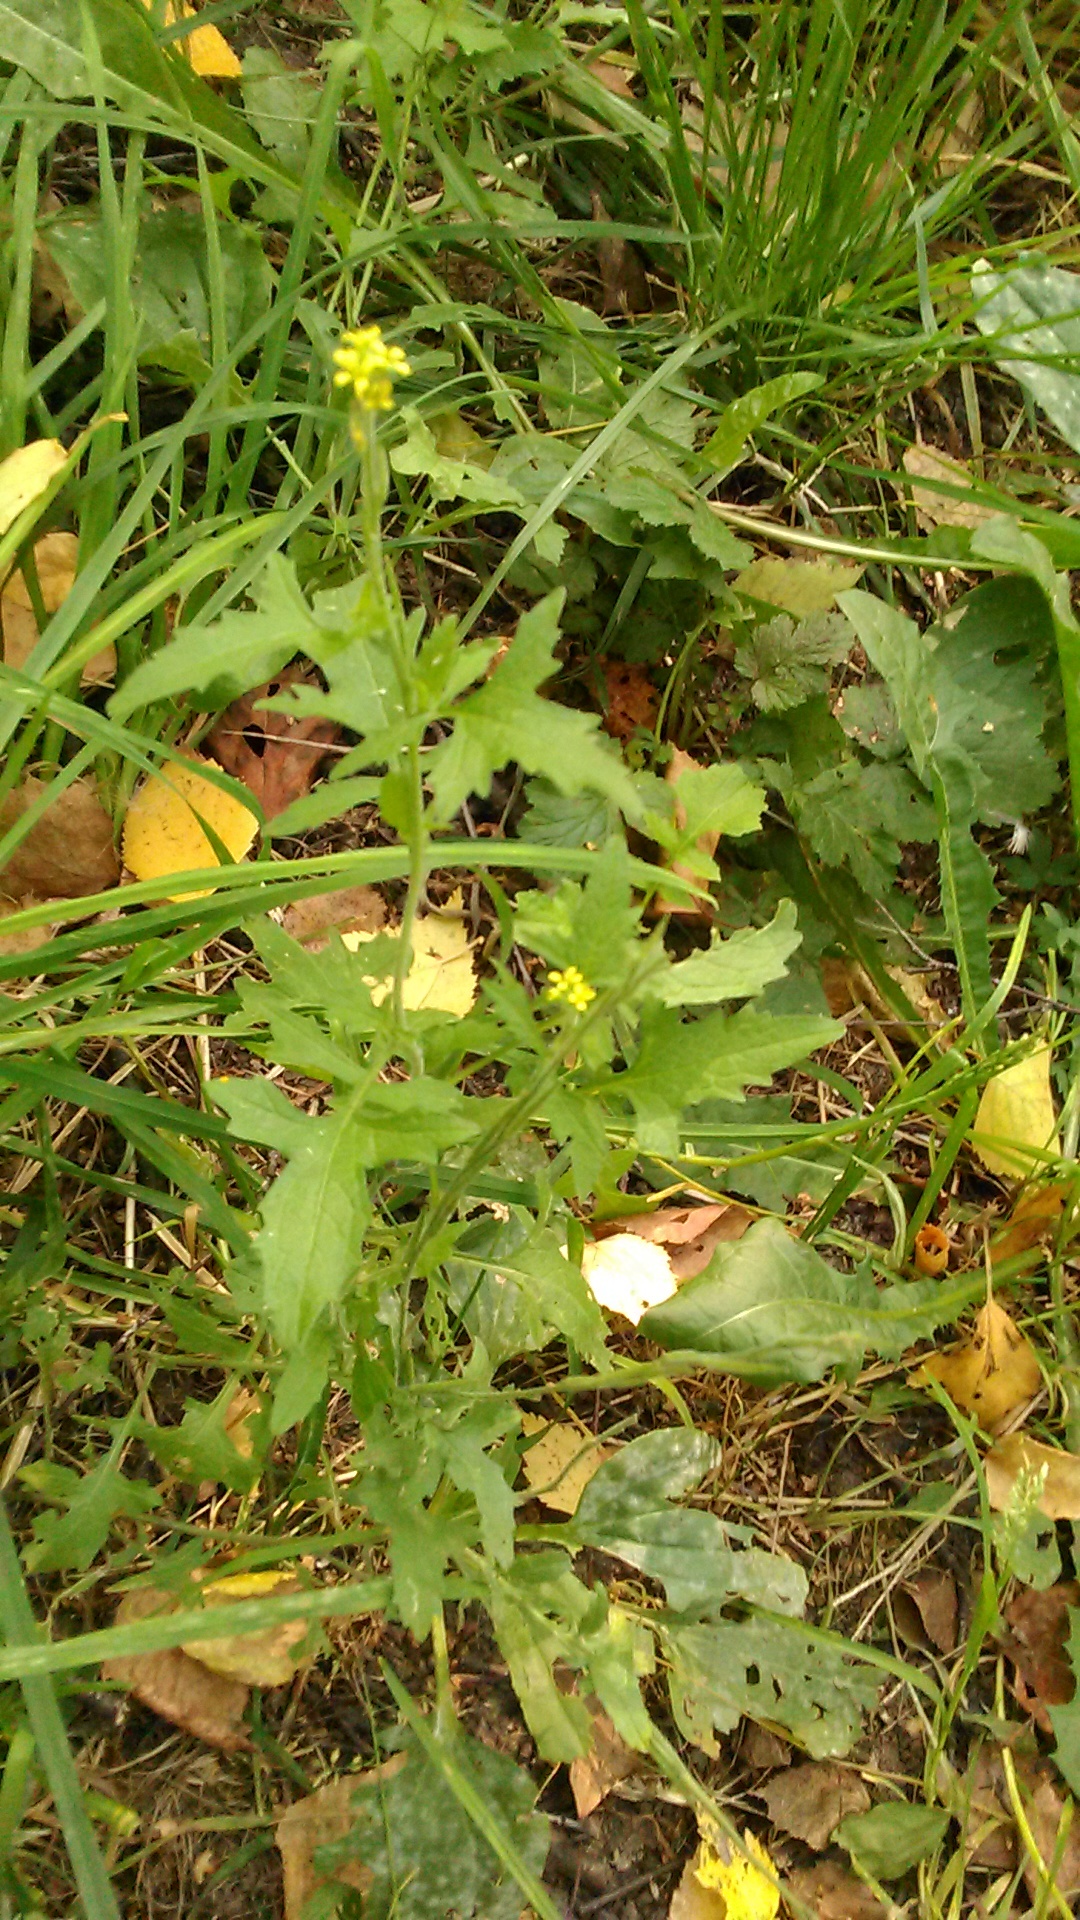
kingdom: Plantae
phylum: Tracheophyta
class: Magnoliopsida
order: Brassicales
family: Brassicaceae
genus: Sisymbrium
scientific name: Sisymbrium officinale
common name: Hedge mustard
